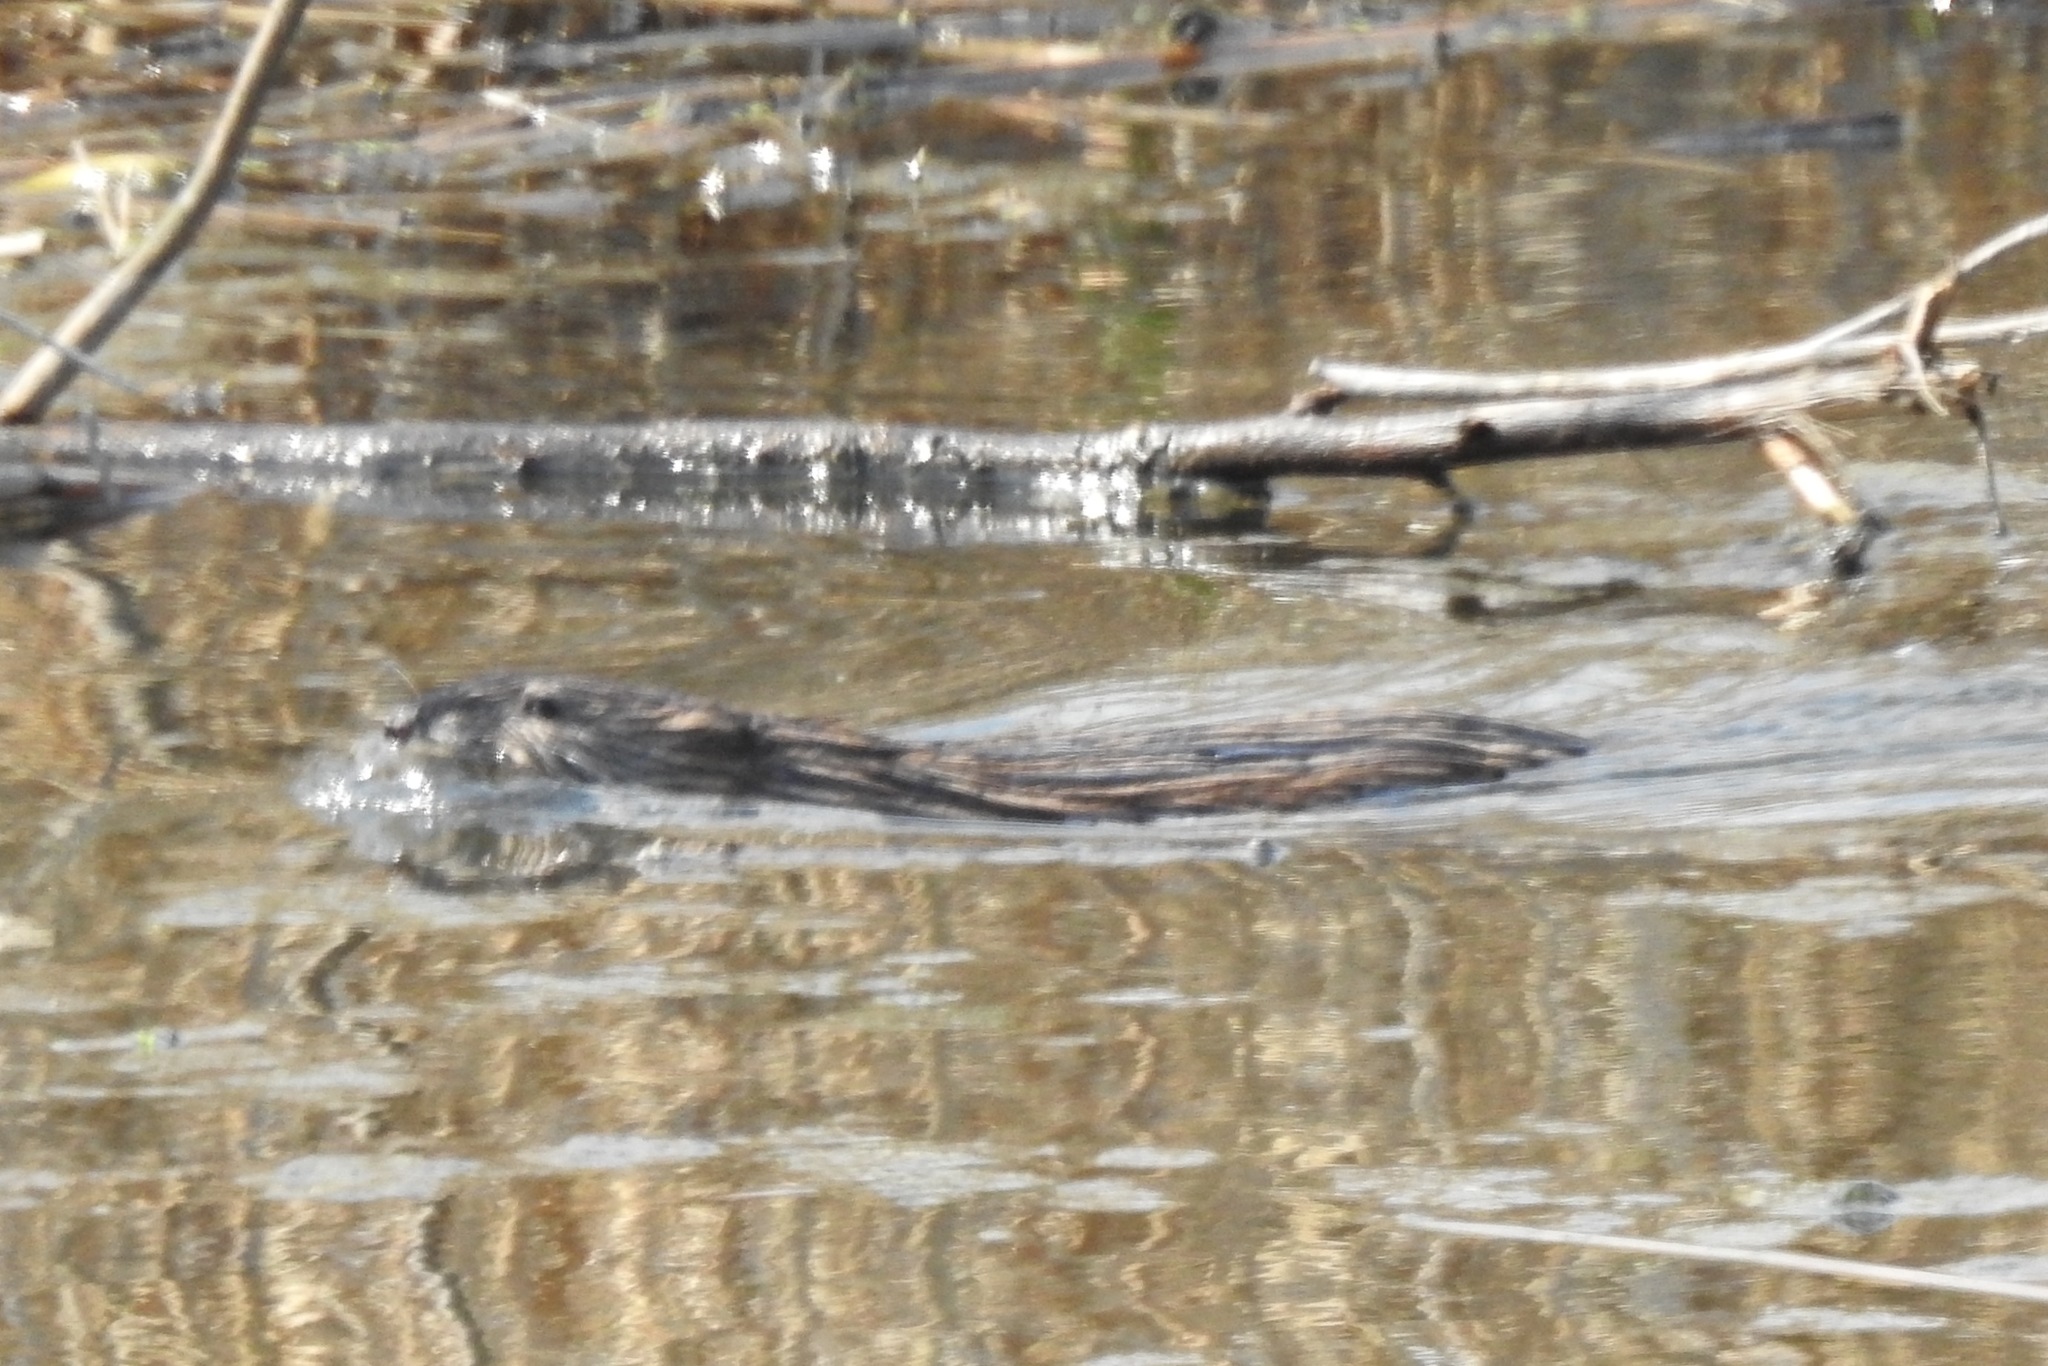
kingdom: Animalia
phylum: Chordata
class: Mammalia
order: Rodentia
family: Cricetidae
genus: Ondatra
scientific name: Ondatra zibethicus
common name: Muskrat
